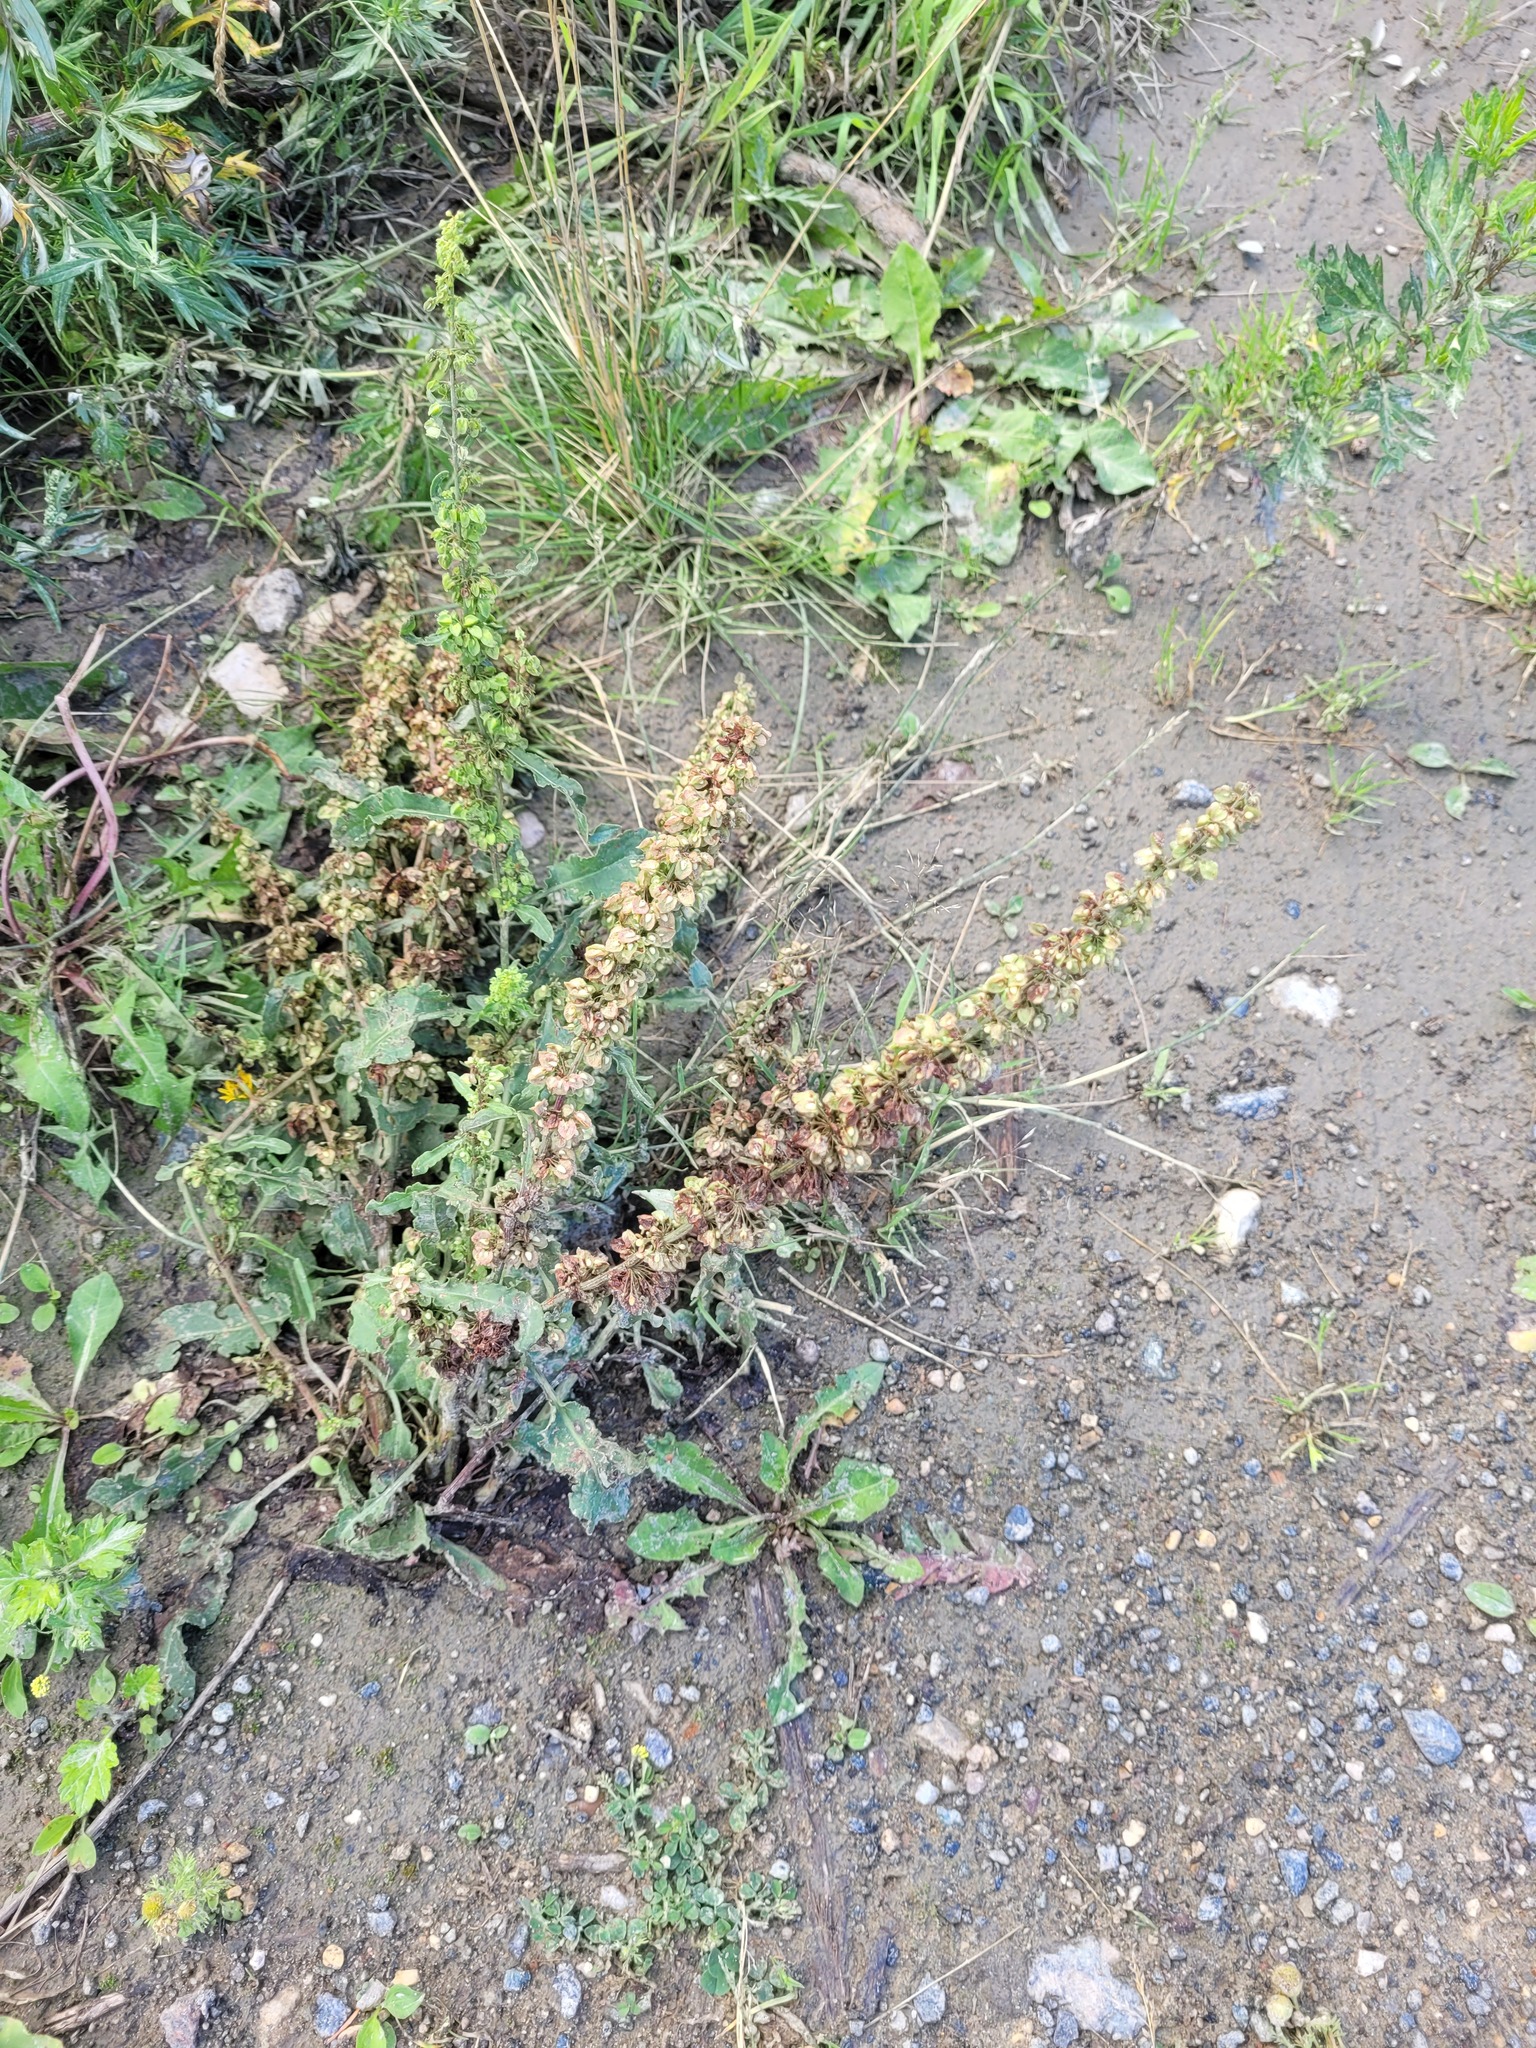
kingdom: Plantae
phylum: Tracheophyta
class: Magnoliopsida
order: Caryophyllales
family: Polygonaceae
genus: Rumex
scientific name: Rumex crispus
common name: Curled dock
